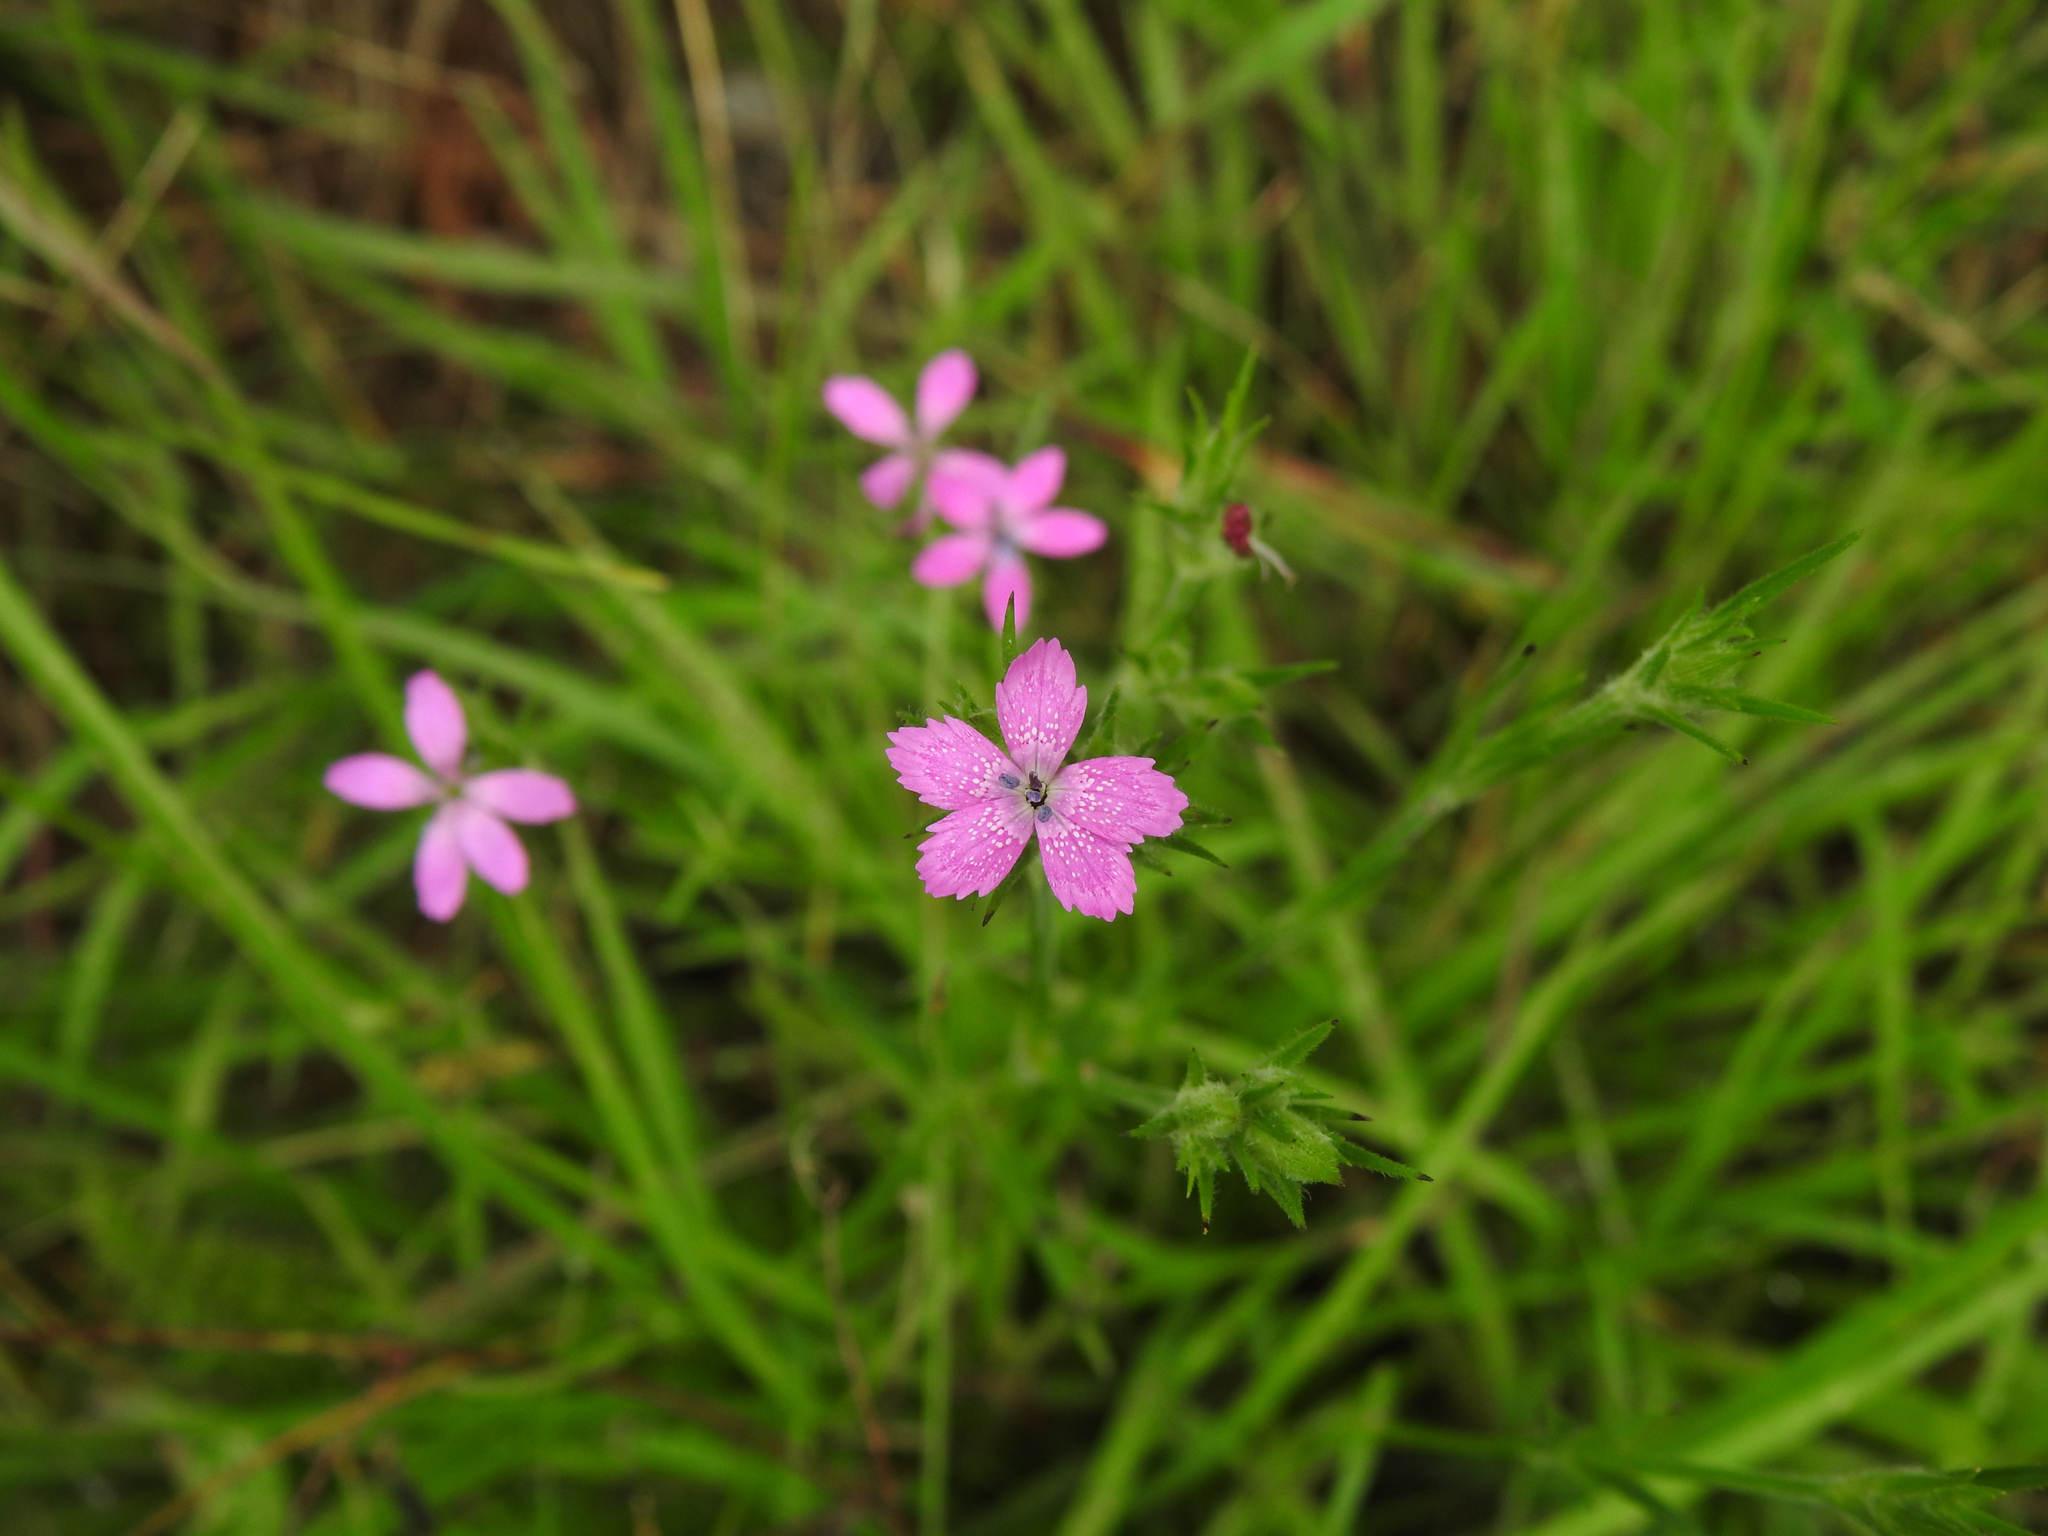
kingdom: Plantae
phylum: Tracheophyta
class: Magnoliopsida
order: Caryophyllales
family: Caryophyllaceae
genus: Dianthus
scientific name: Dianthus armeria
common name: Deptford pink
